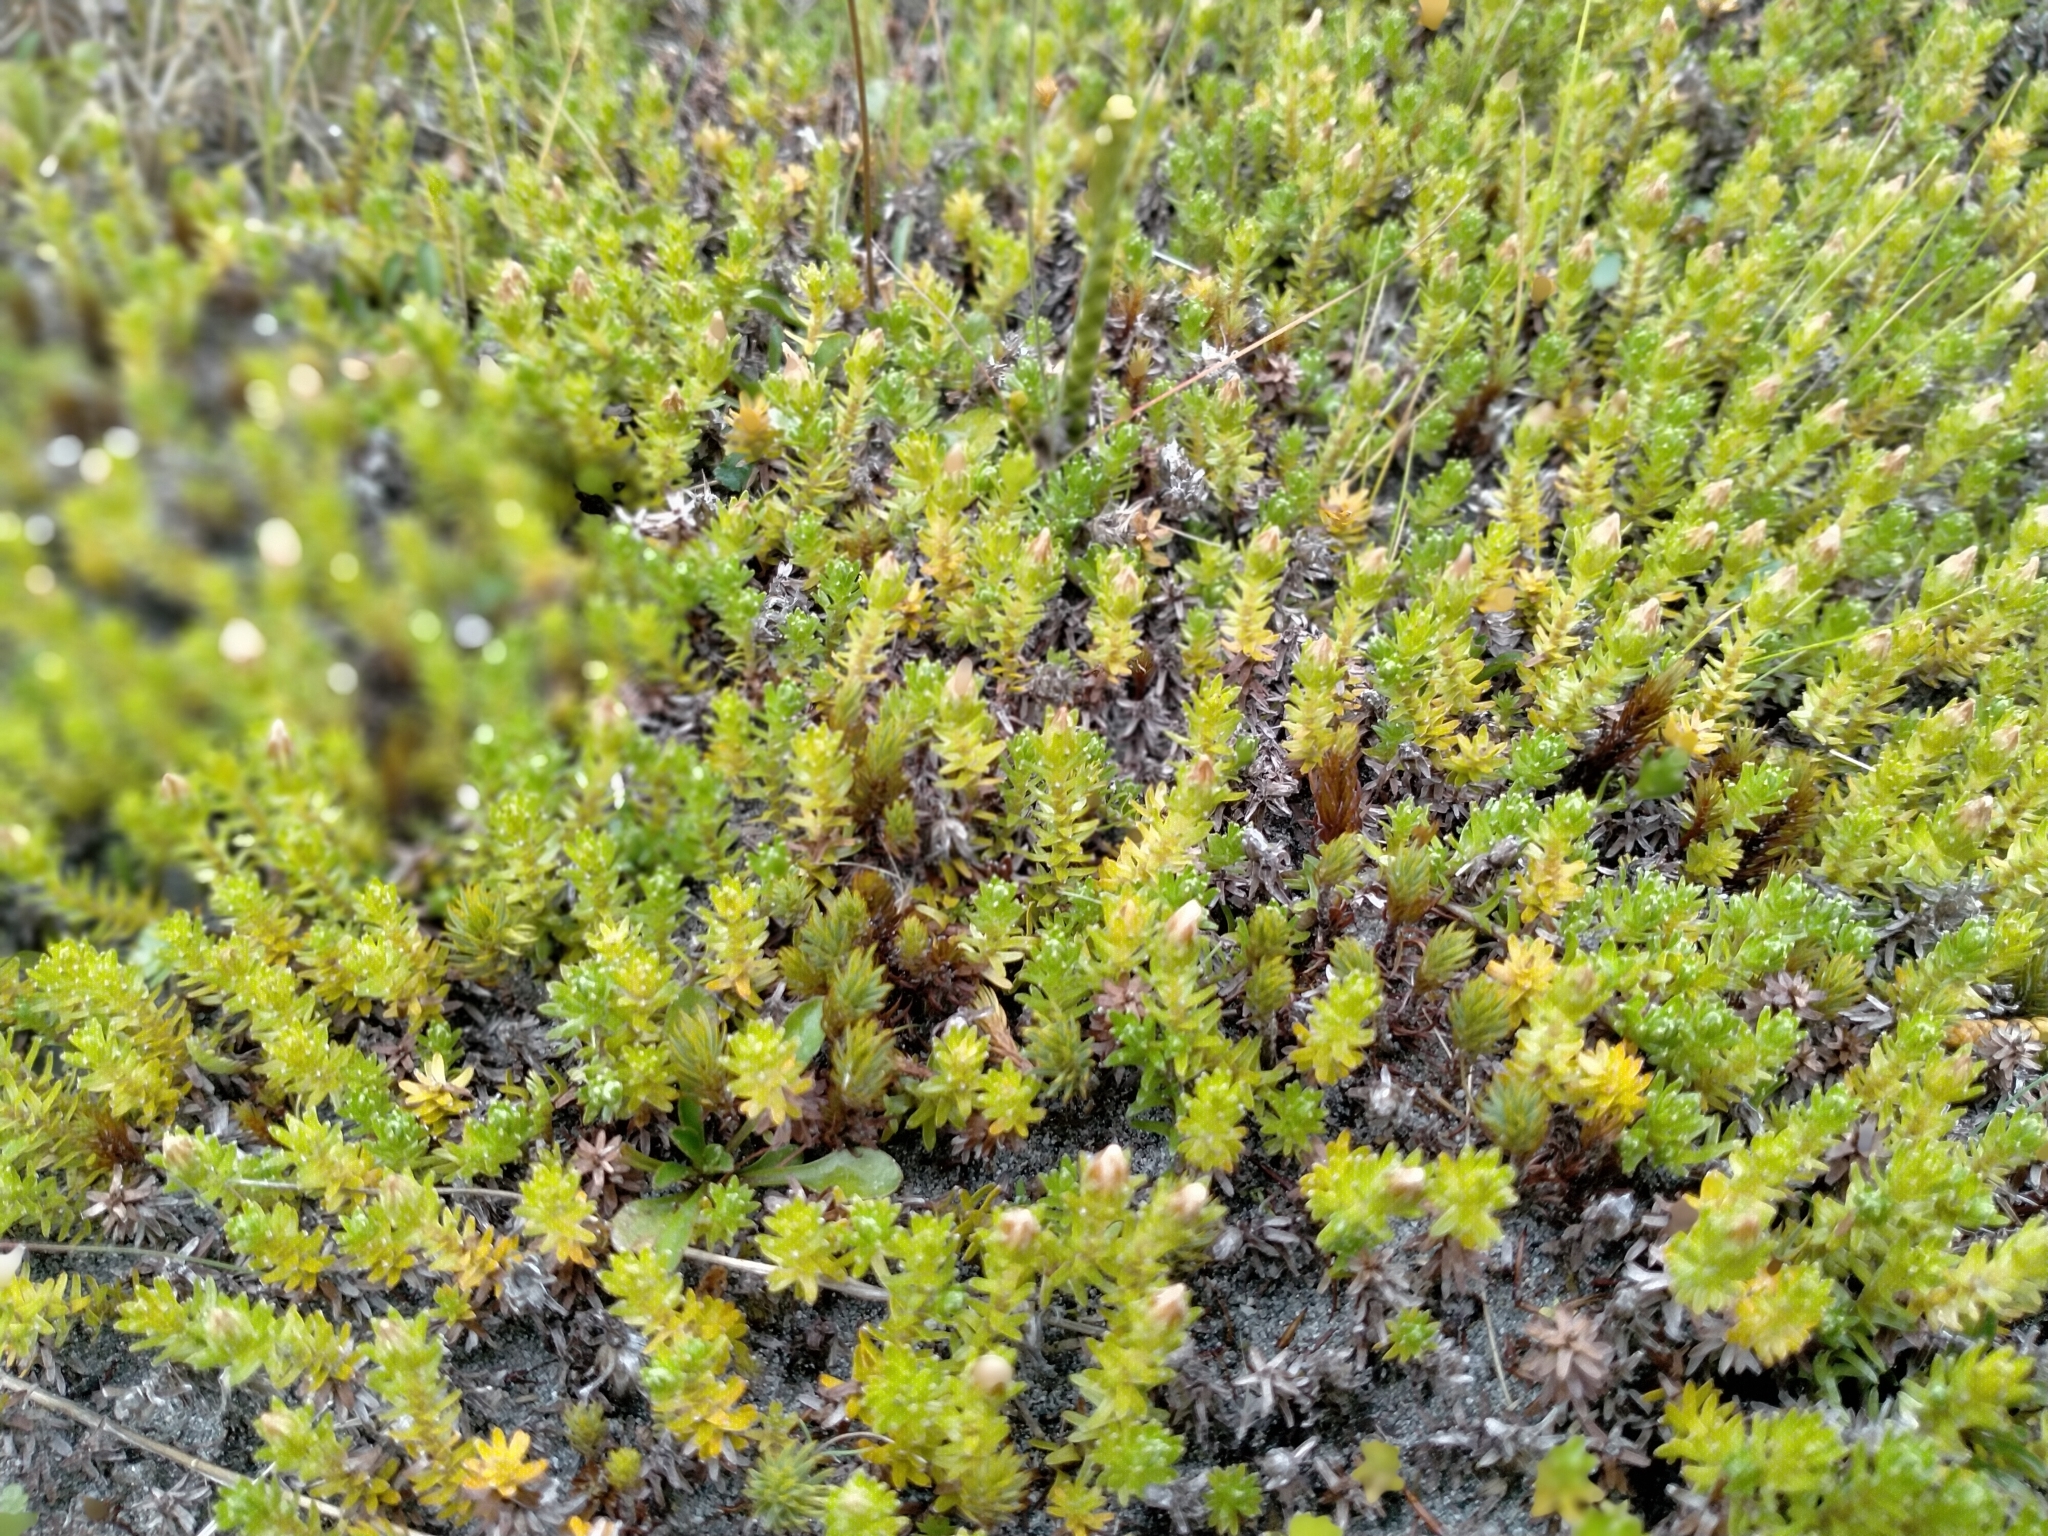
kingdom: Plantae
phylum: Tracheophyta
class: Magnoliopsida
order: Asterales
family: Asteraceae
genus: Raoulia
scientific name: Raoulia glabra
